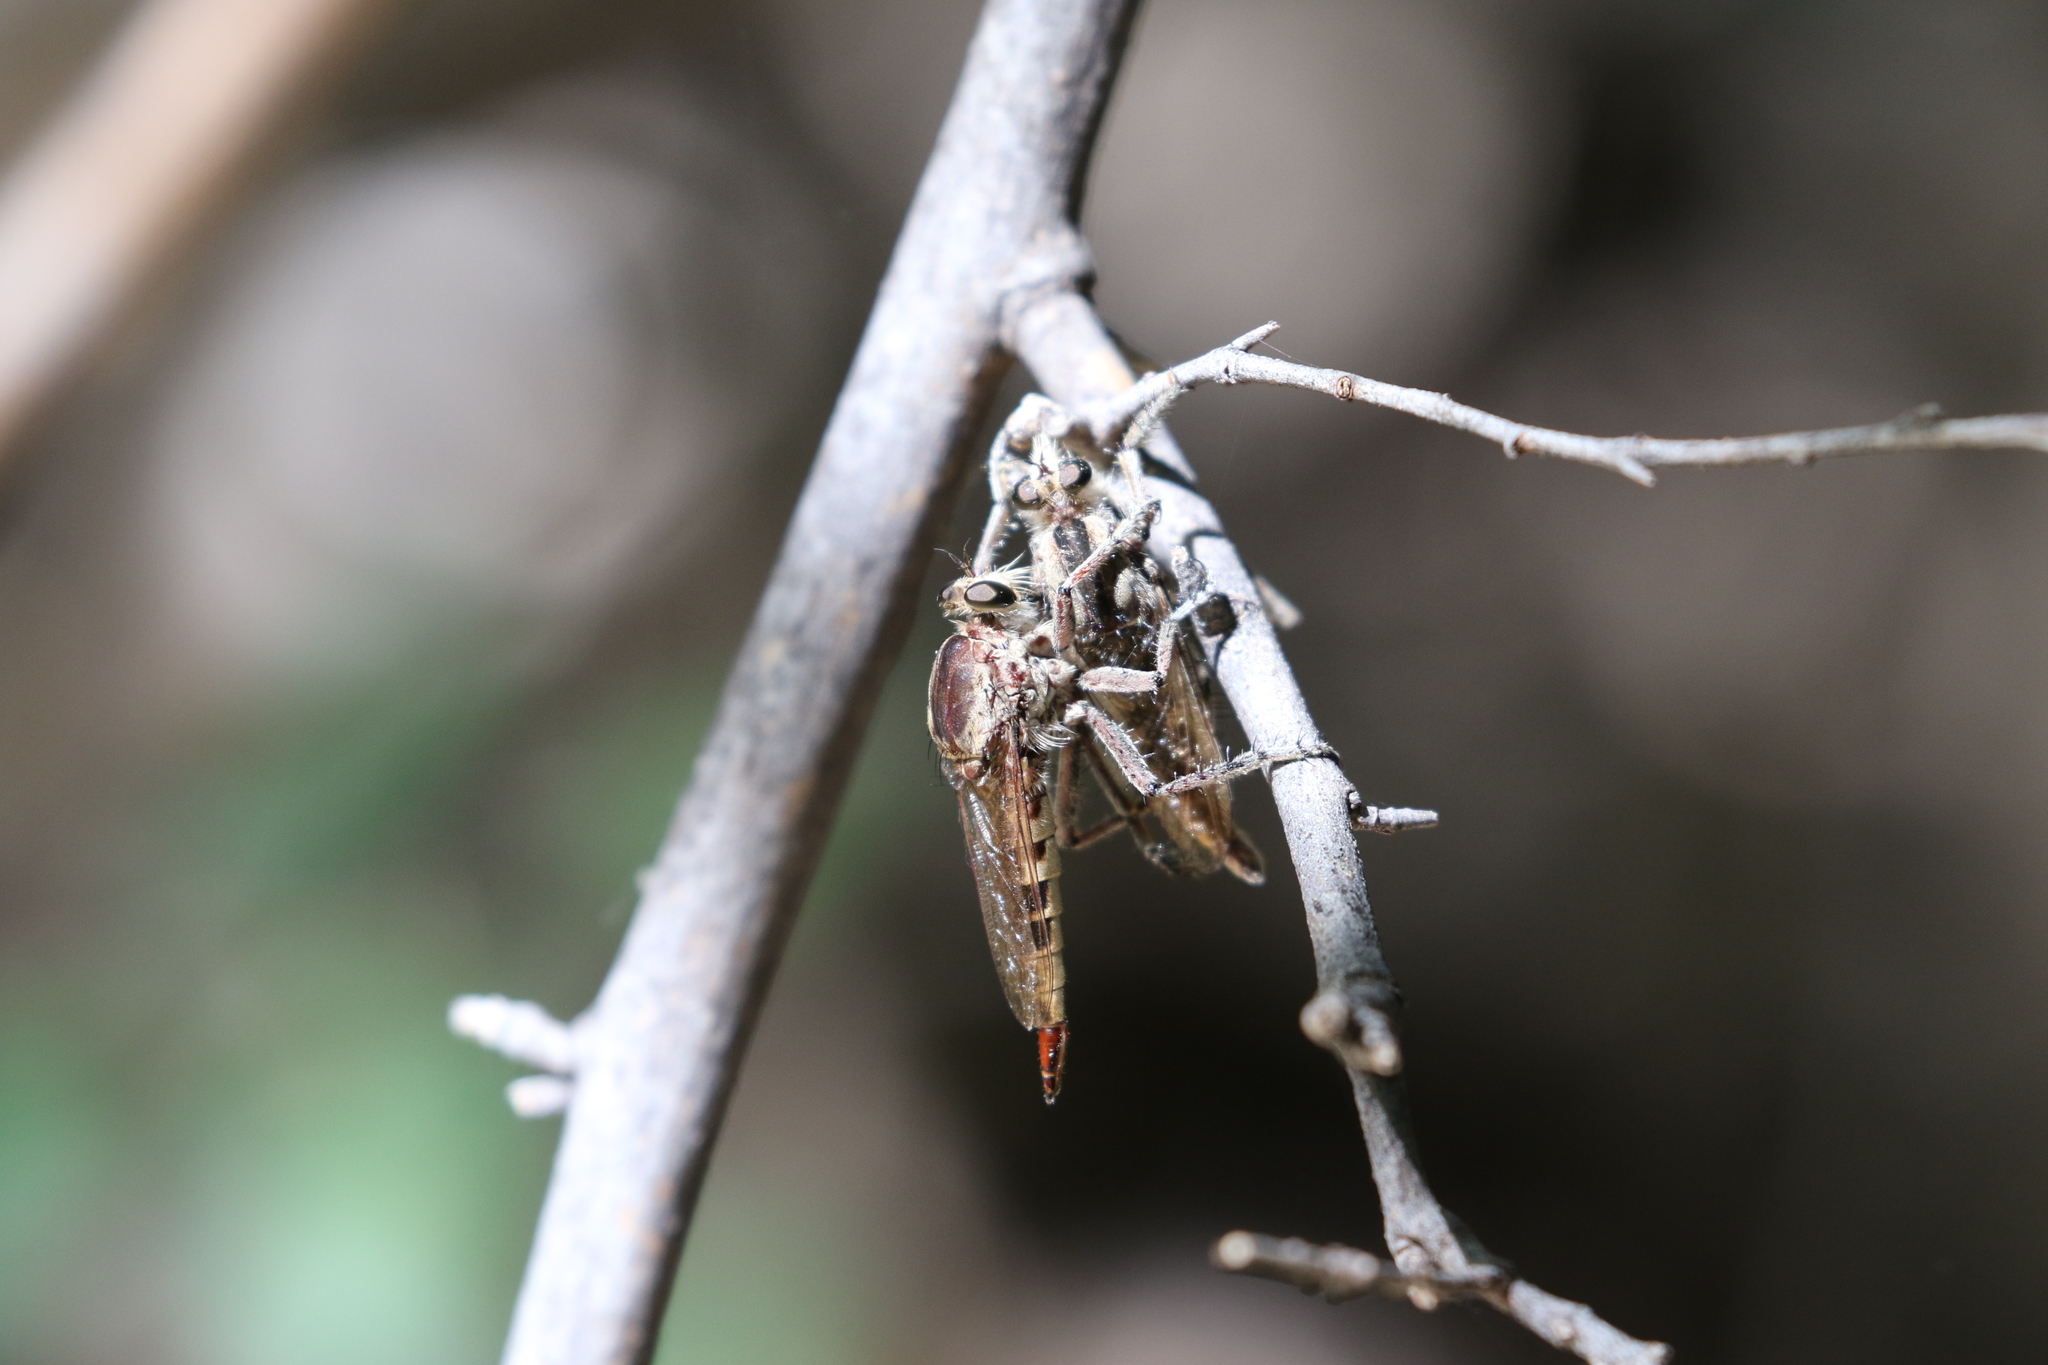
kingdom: Animalia
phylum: Arthropoda
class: Insecta
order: Diptera
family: Asilidae
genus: Triorla
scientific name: Triorla interrupta
